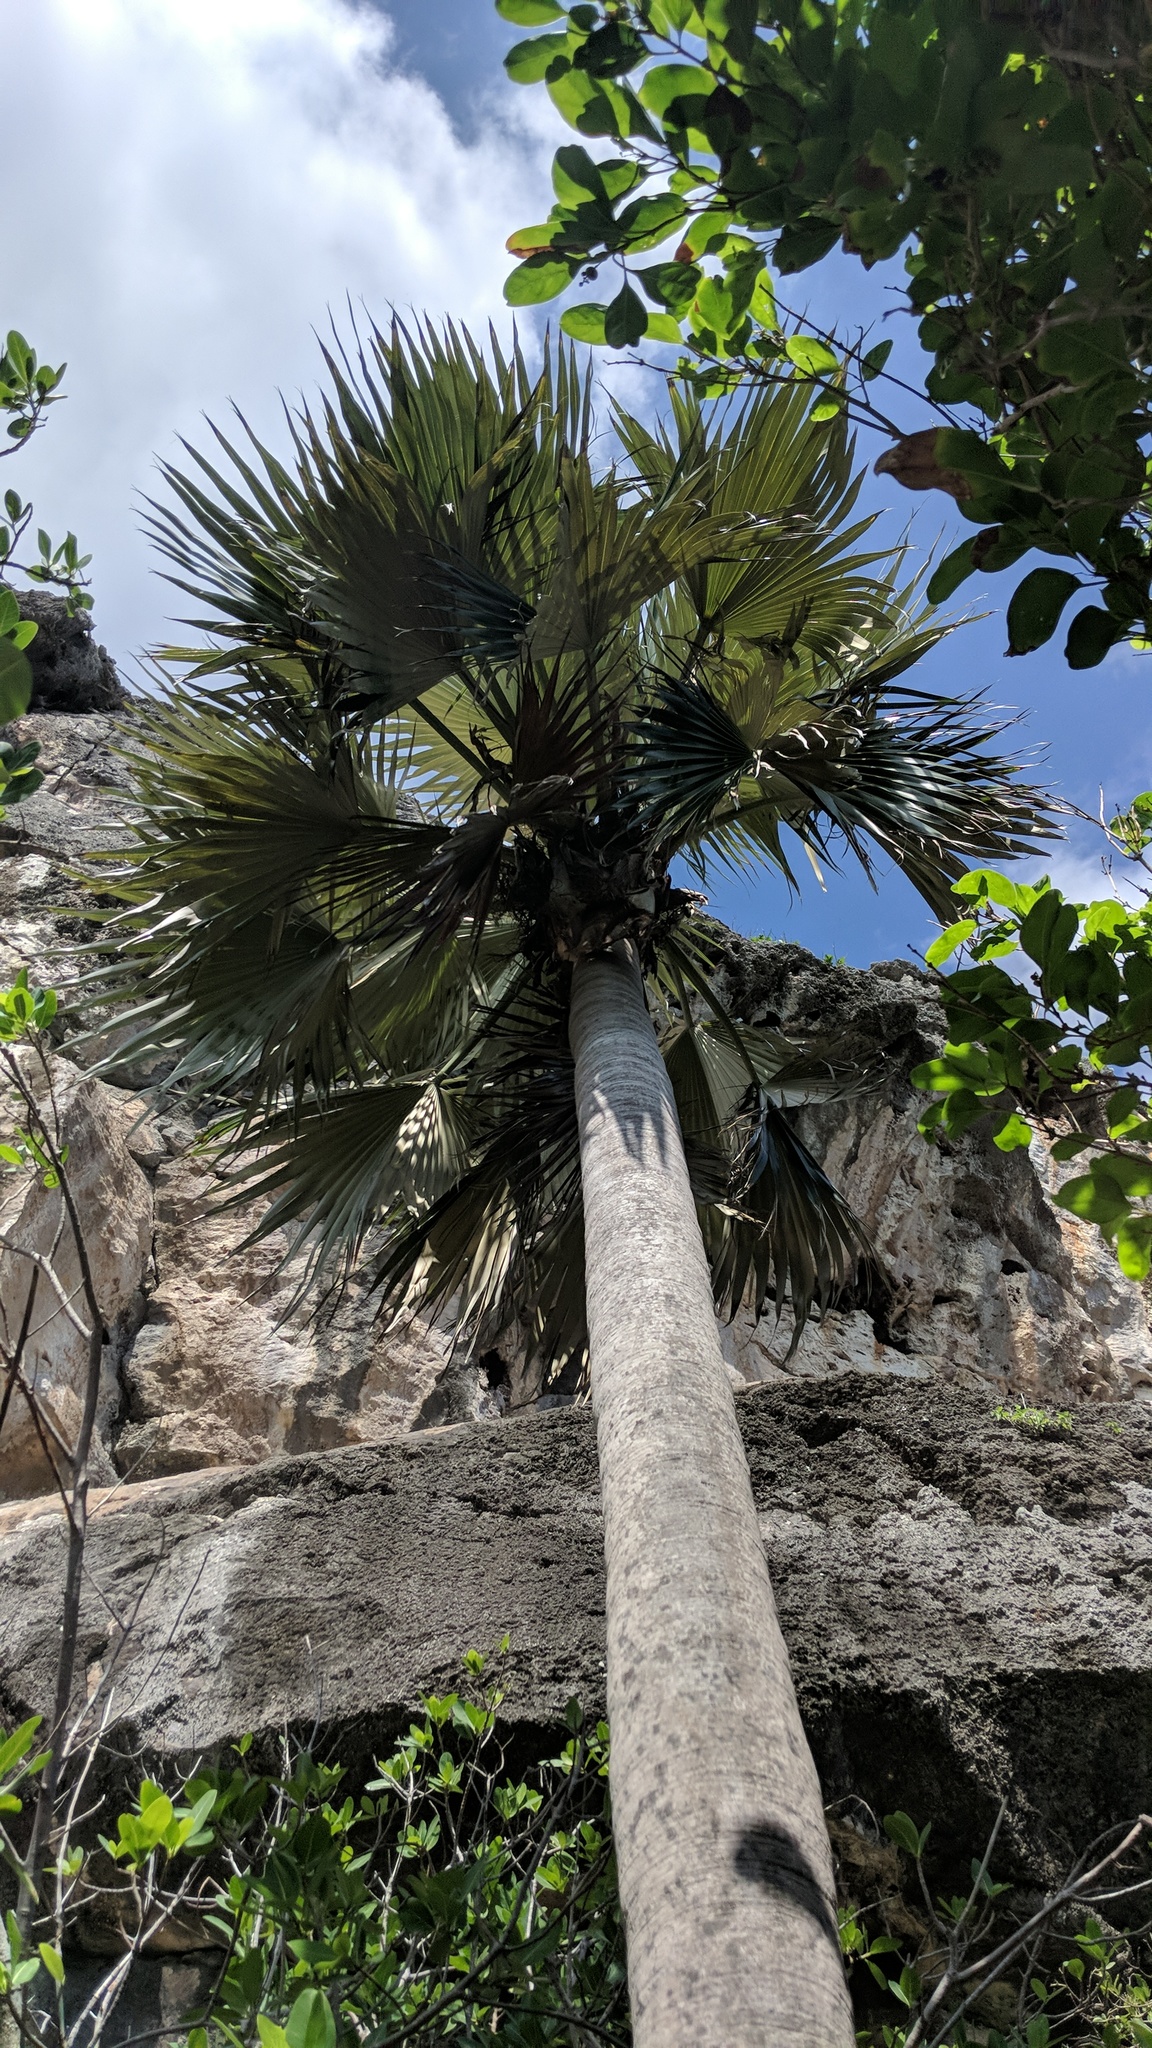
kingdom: Plantae
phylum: Tracheophyta
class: Liliopsida
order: Arecales
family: Arecaceae
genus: Coccothrinax
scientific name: Coccothrinax proctorii
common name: Silver palm
